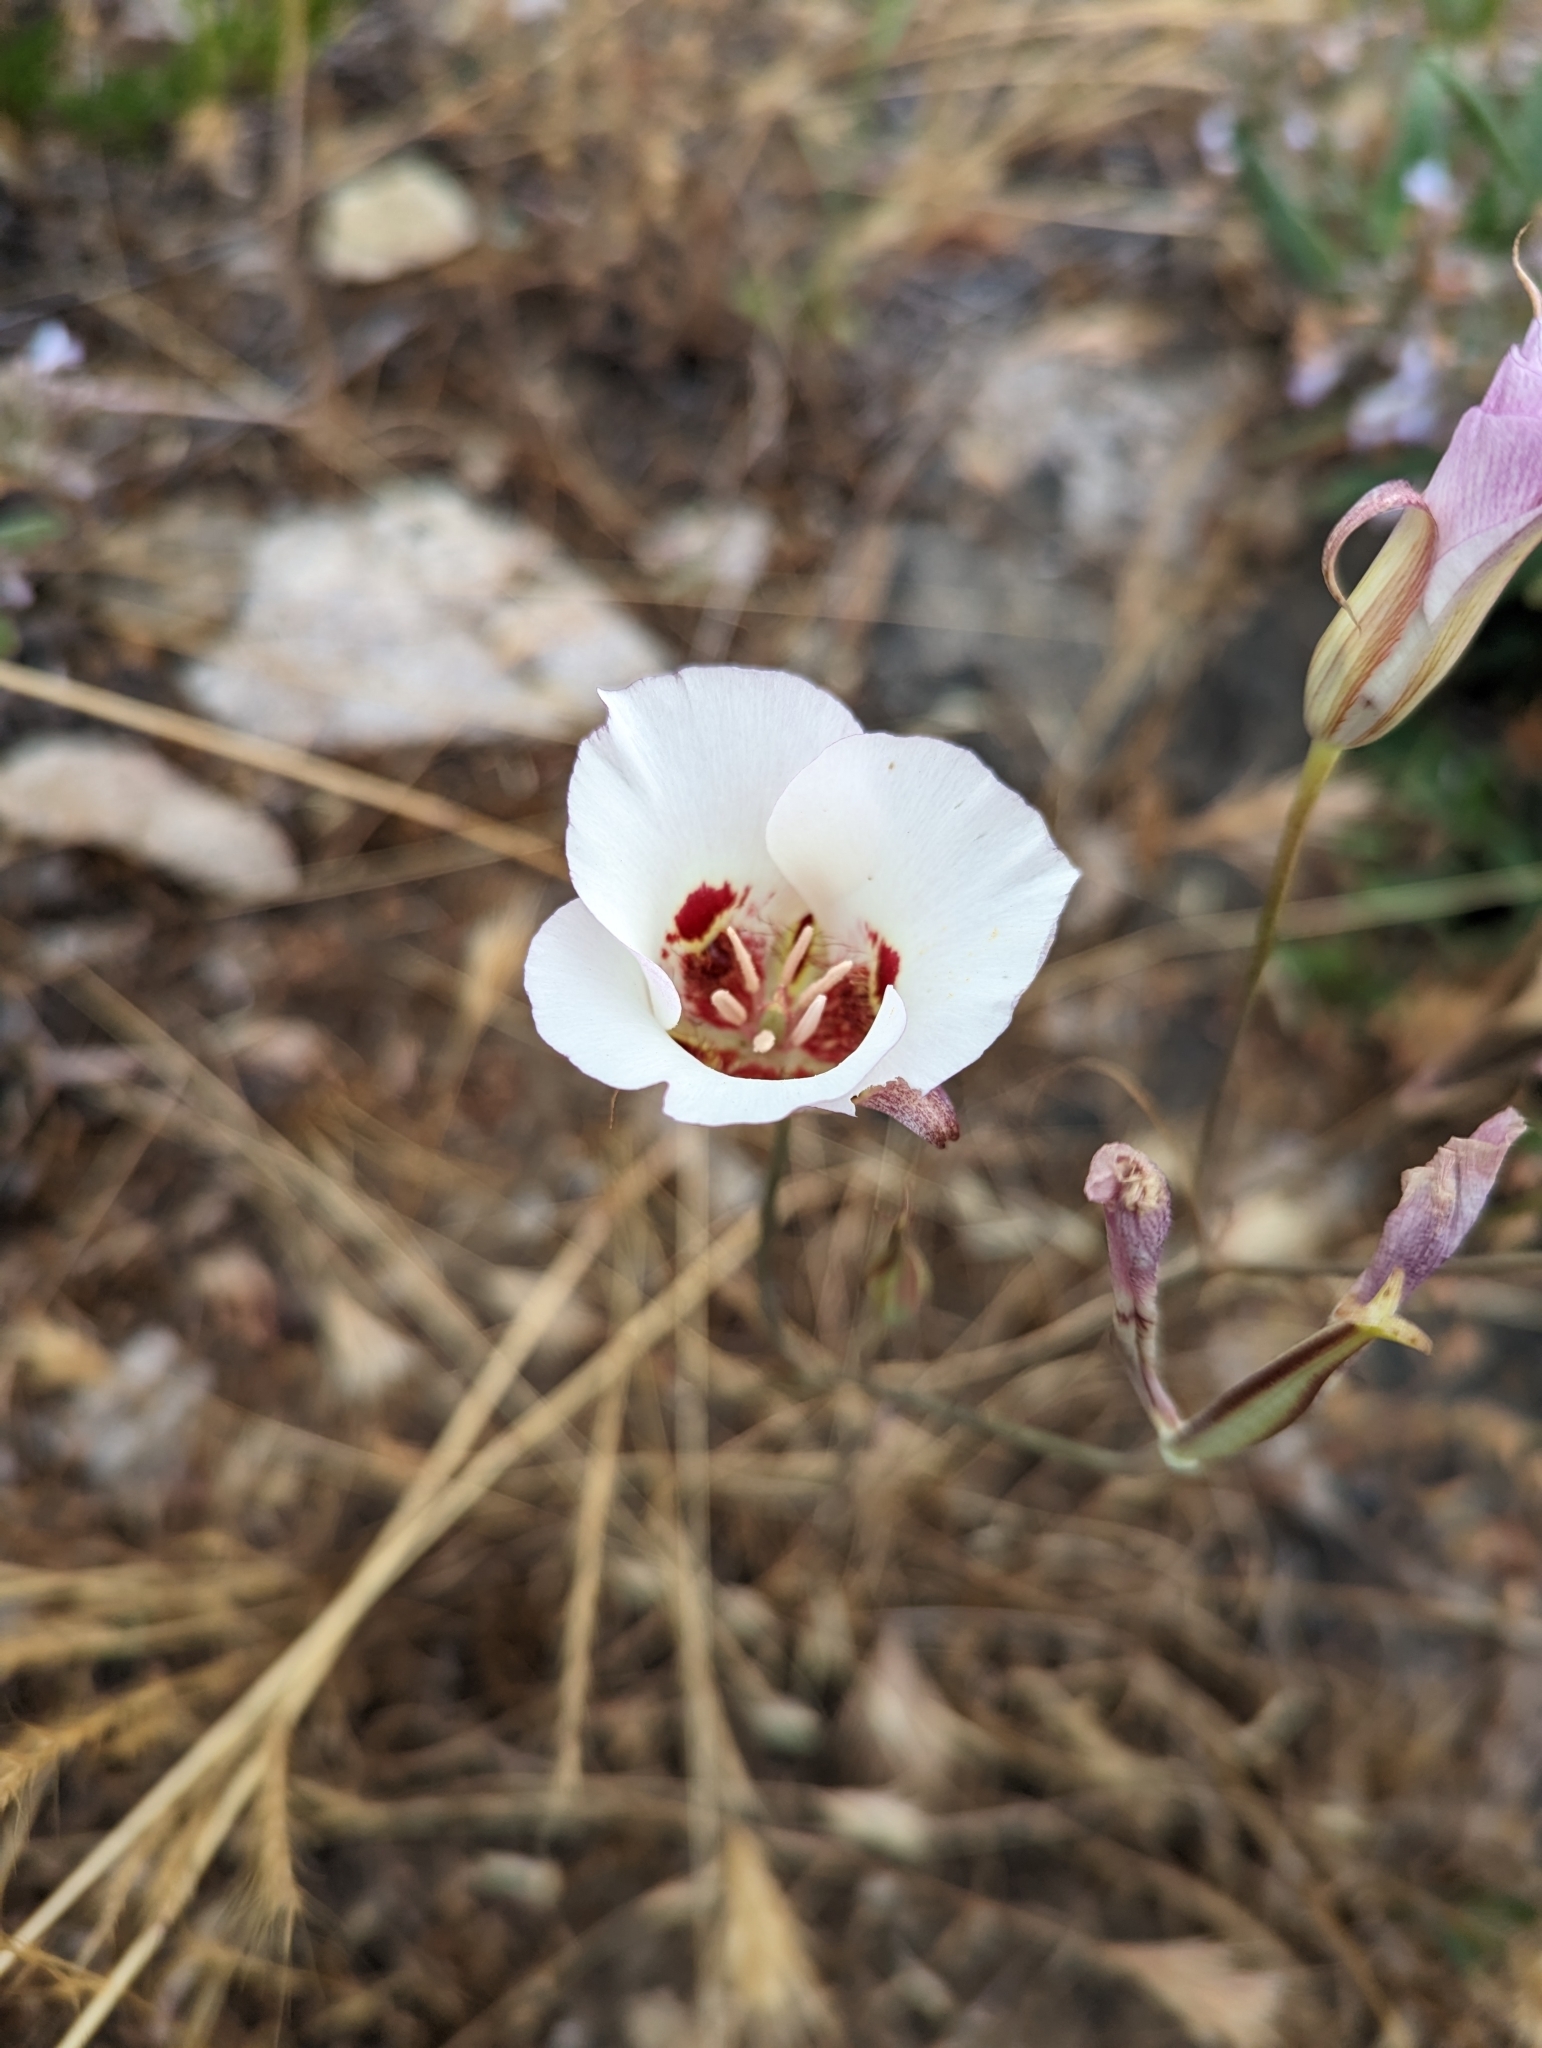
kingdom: Plantae
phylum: Tracheophyta
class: Liliopsida
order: Liliales
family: Liliaceae
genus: Calochortus
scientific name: Calochortus venustus
